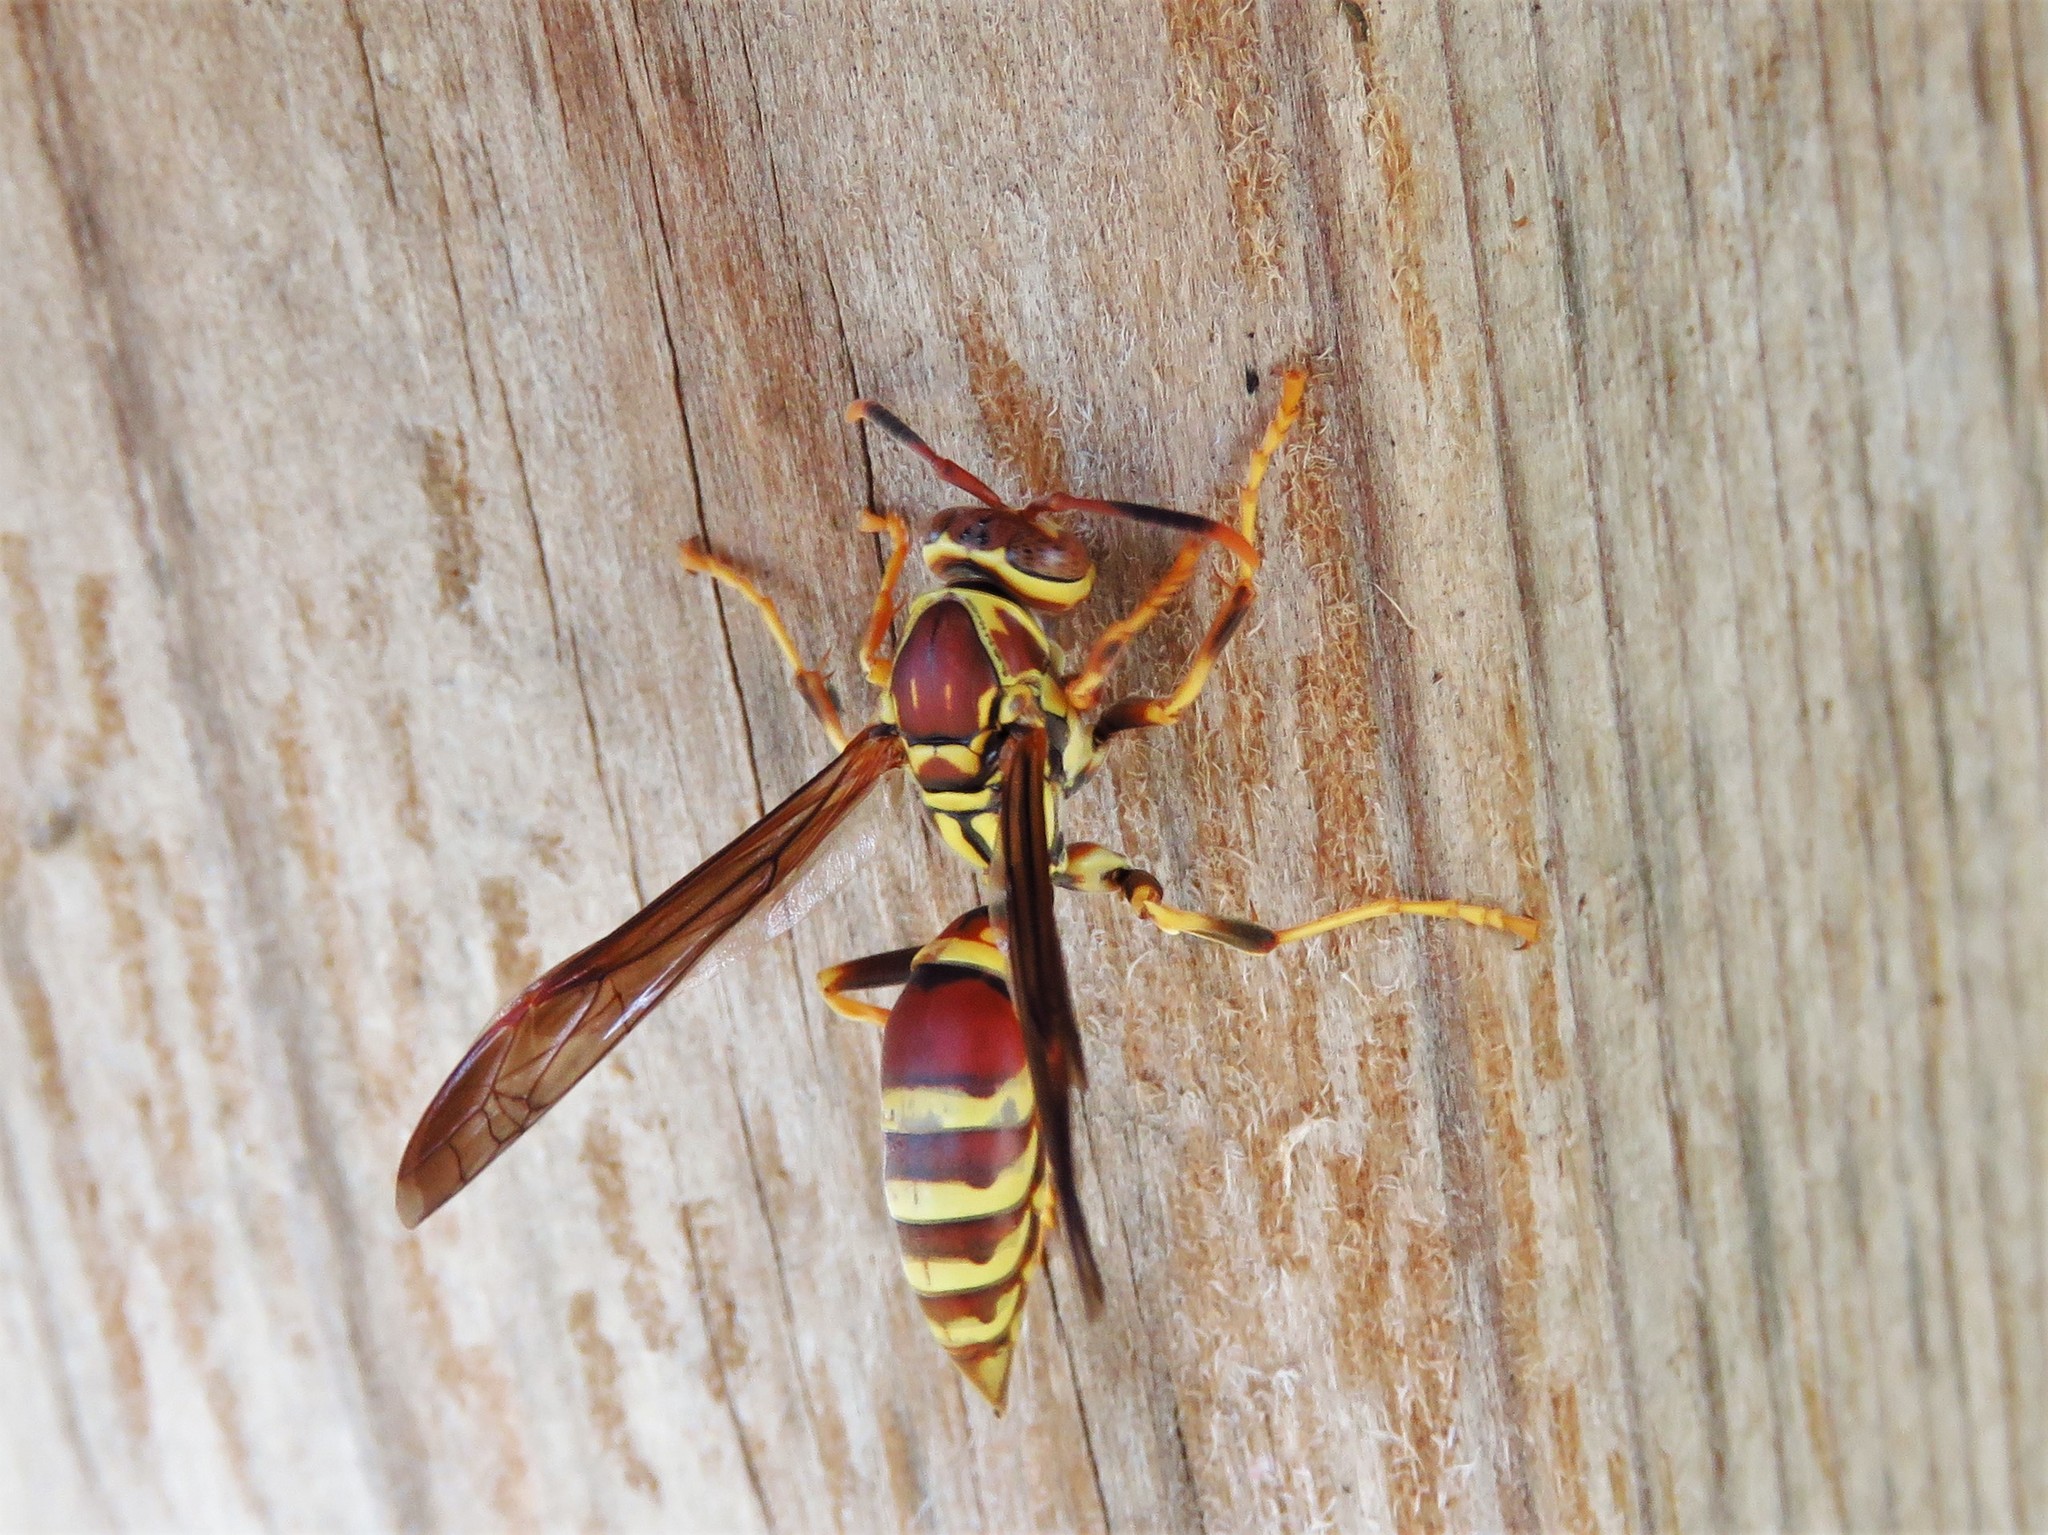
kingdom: Animalia
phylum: Arthropoda
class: Insecta
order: Hymenoptera
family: Eumenidae
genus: Polistes
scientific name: Polistes exclamans
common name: Paper wasp
